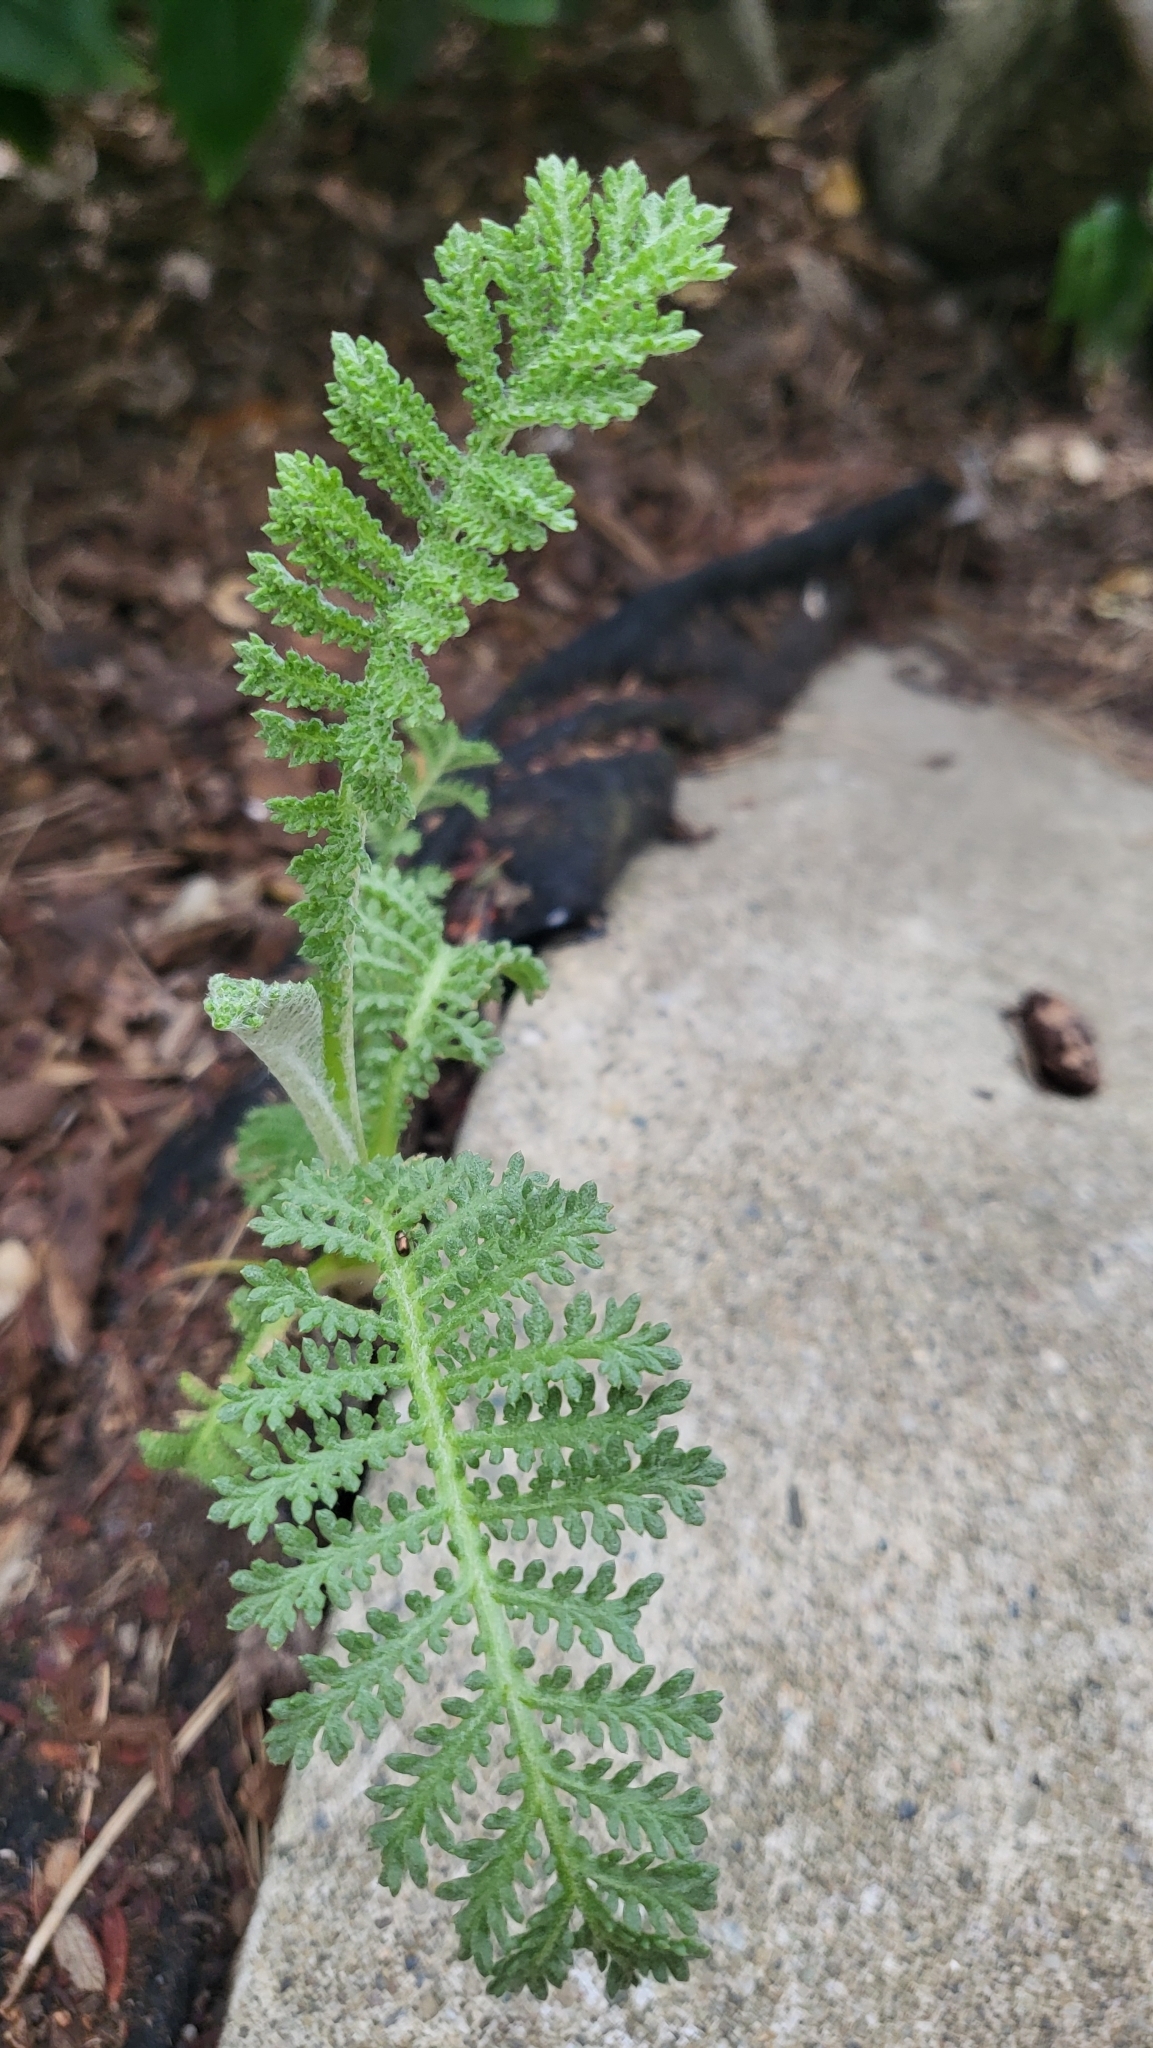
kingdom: Plantae
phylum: Tracheophyta
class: Magnoliopsida
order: Asterales
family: Asteraceae
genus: Tanacetum
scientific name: Tanacetum bipinnatum
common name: Dwarf tansy
